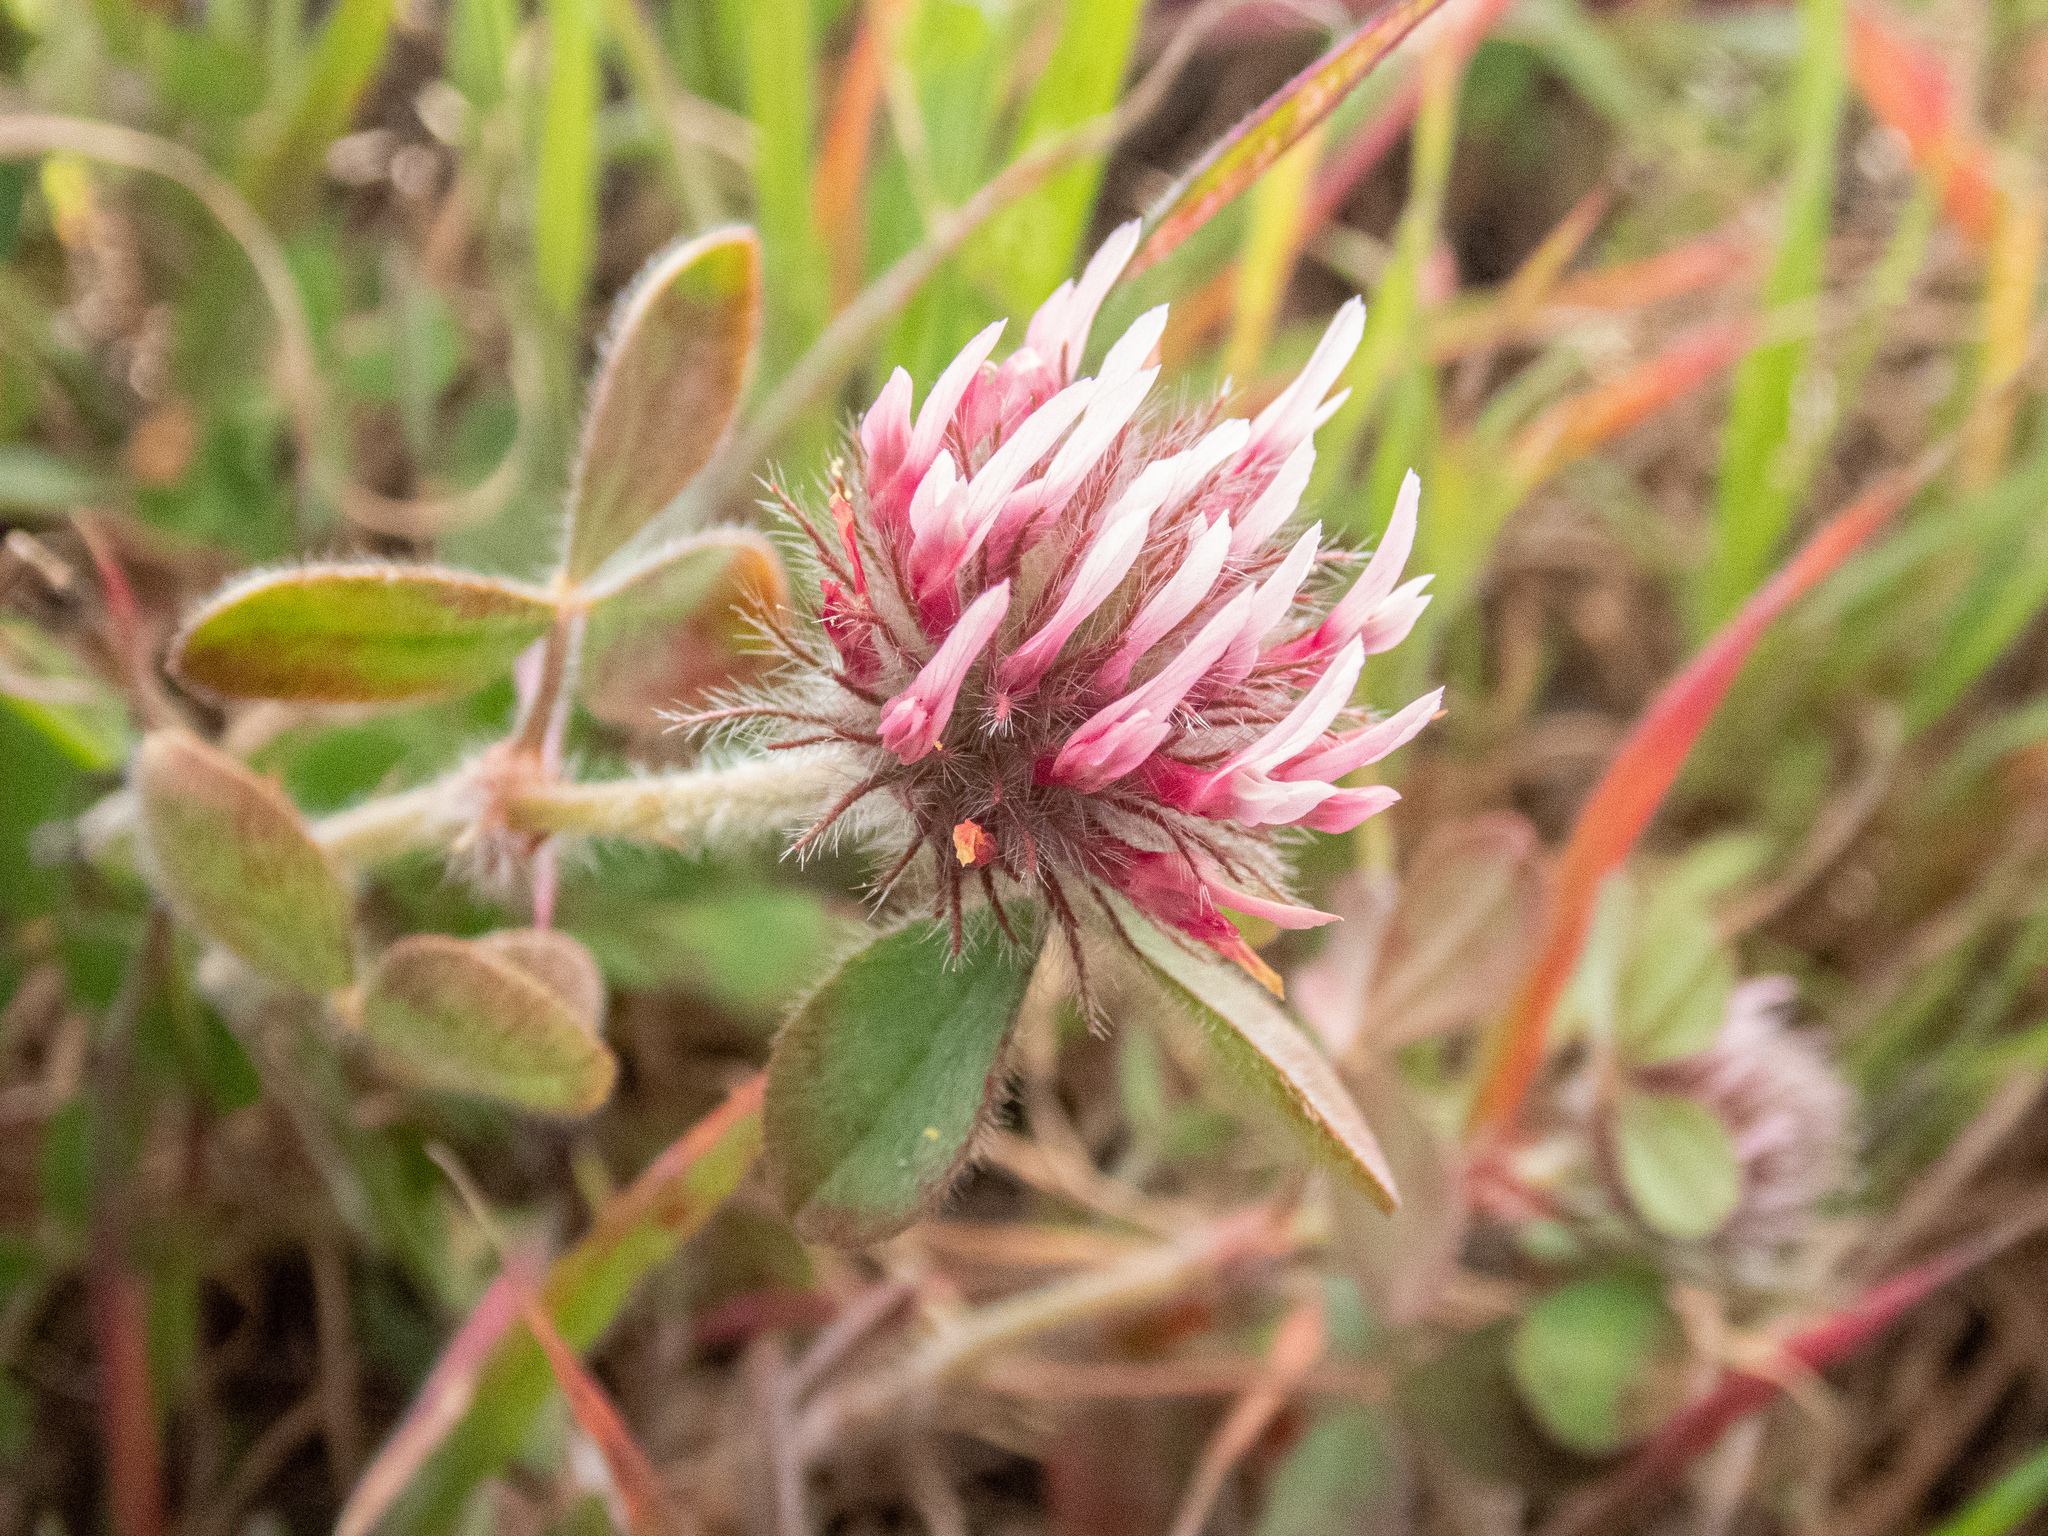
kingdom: Plantae
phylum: Tracheophyta
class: Magnoliopsida
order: Fabales
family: Fabaceae
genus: Trifolium
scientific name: Trifolium hirtum
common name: Rose clover
